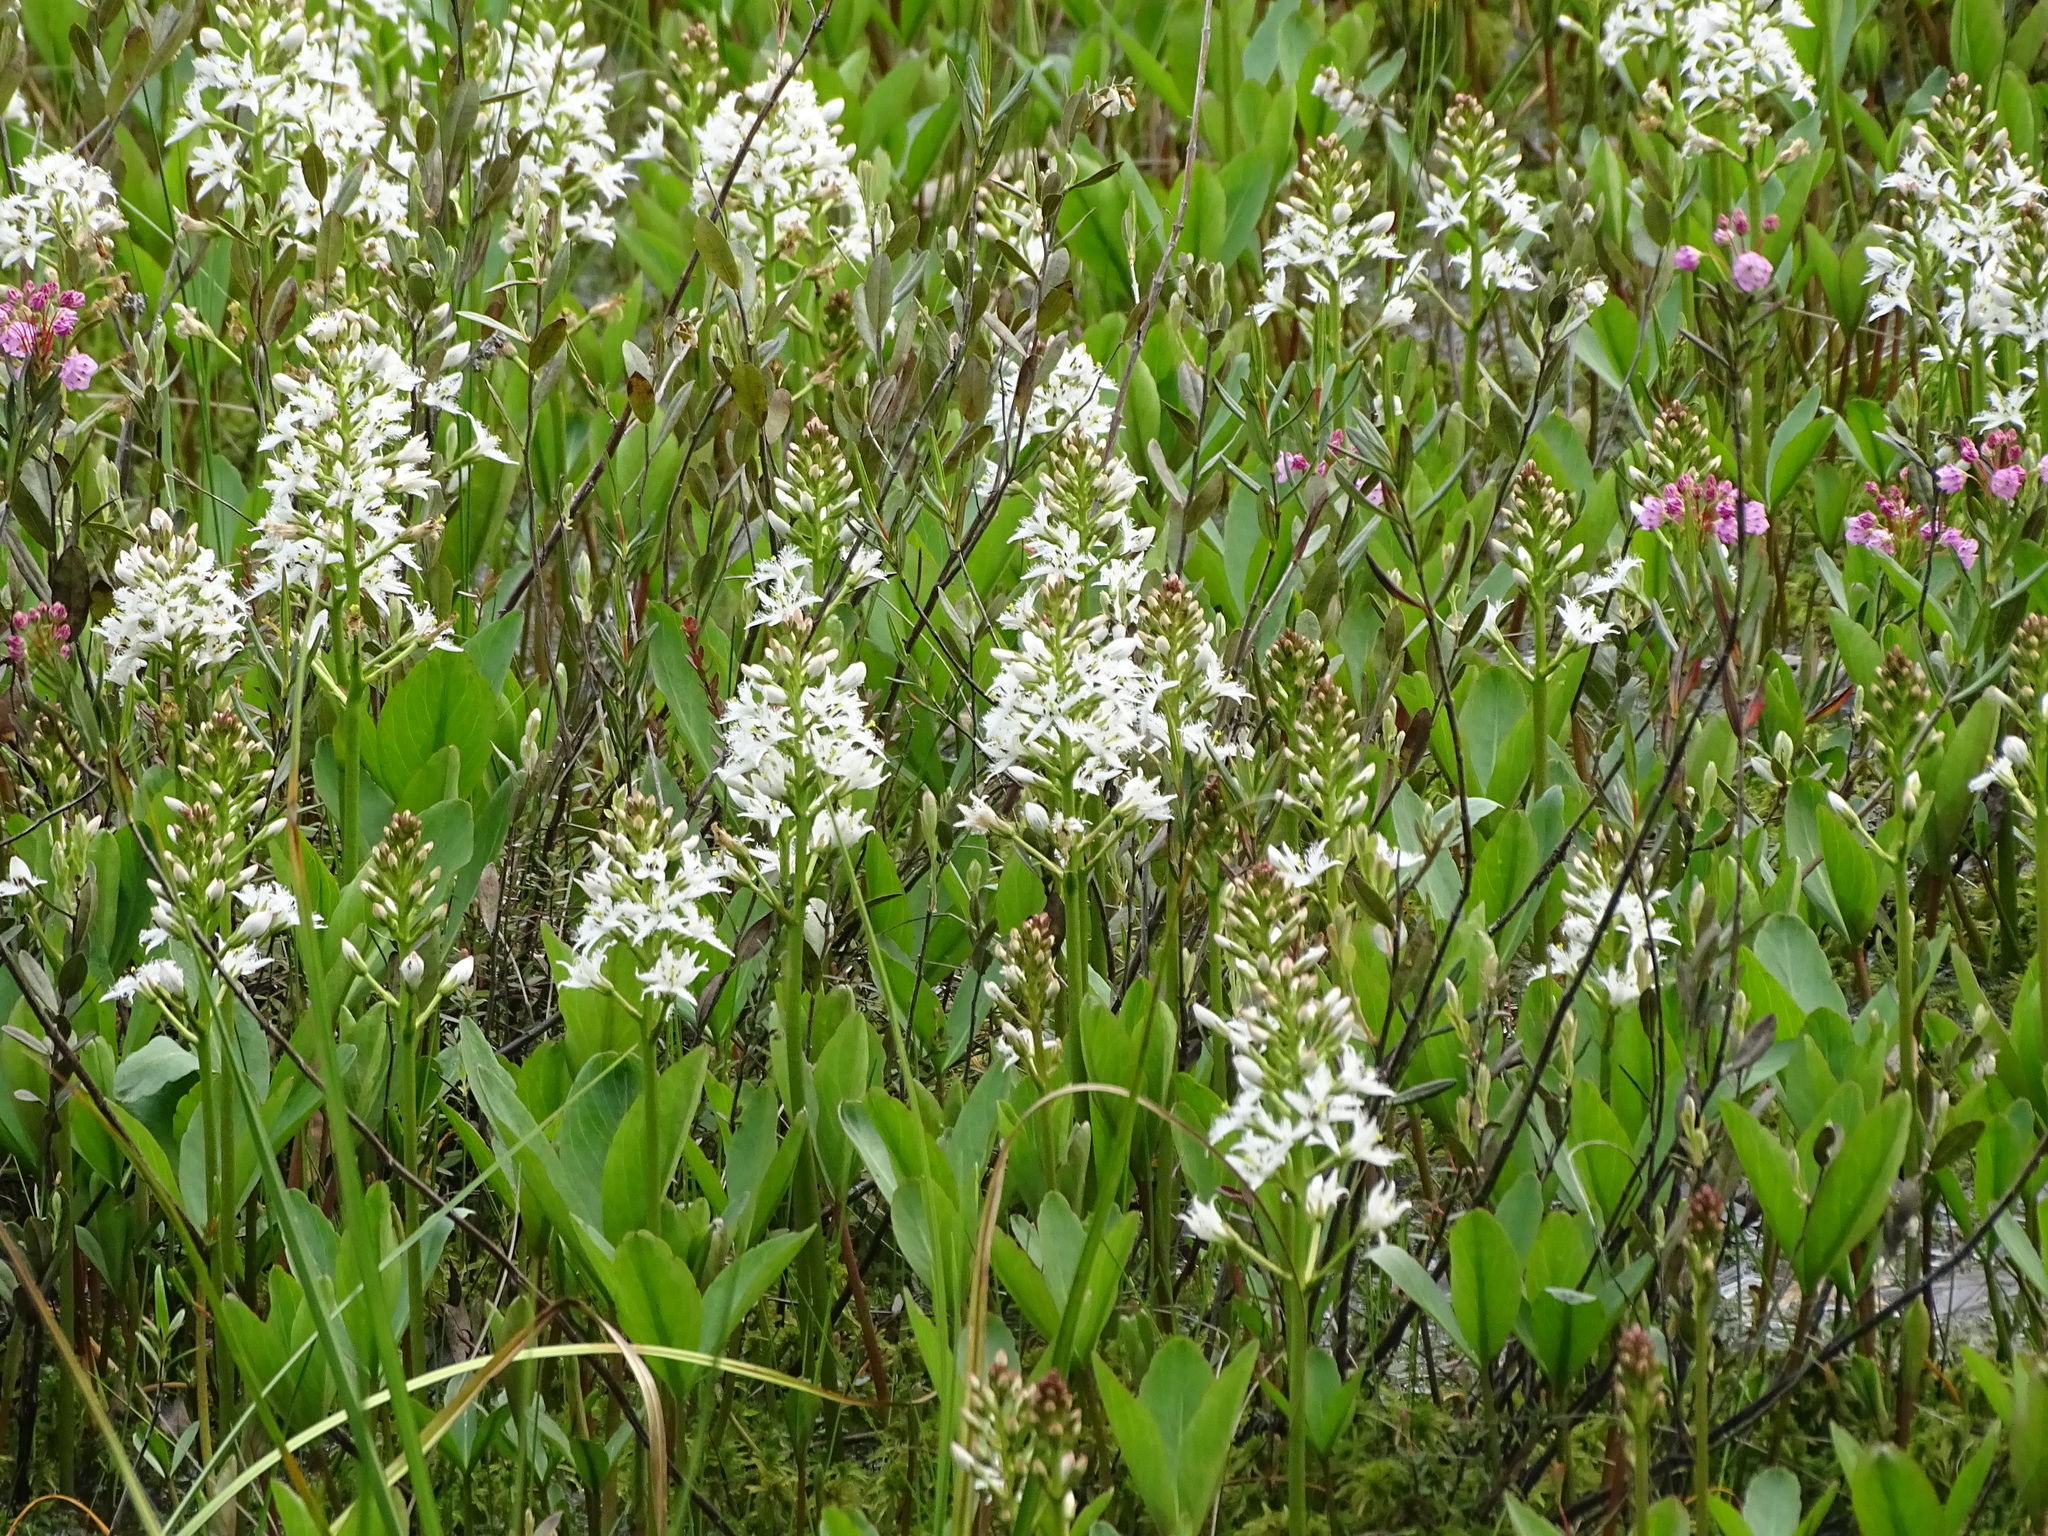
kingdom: Plantae
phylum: Tracheophyta
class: Magnoliopsida
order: Asterales
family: Menyanthaceae
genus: Menyanthes
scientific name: Menyanthes trifoliata
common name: Bogbean
